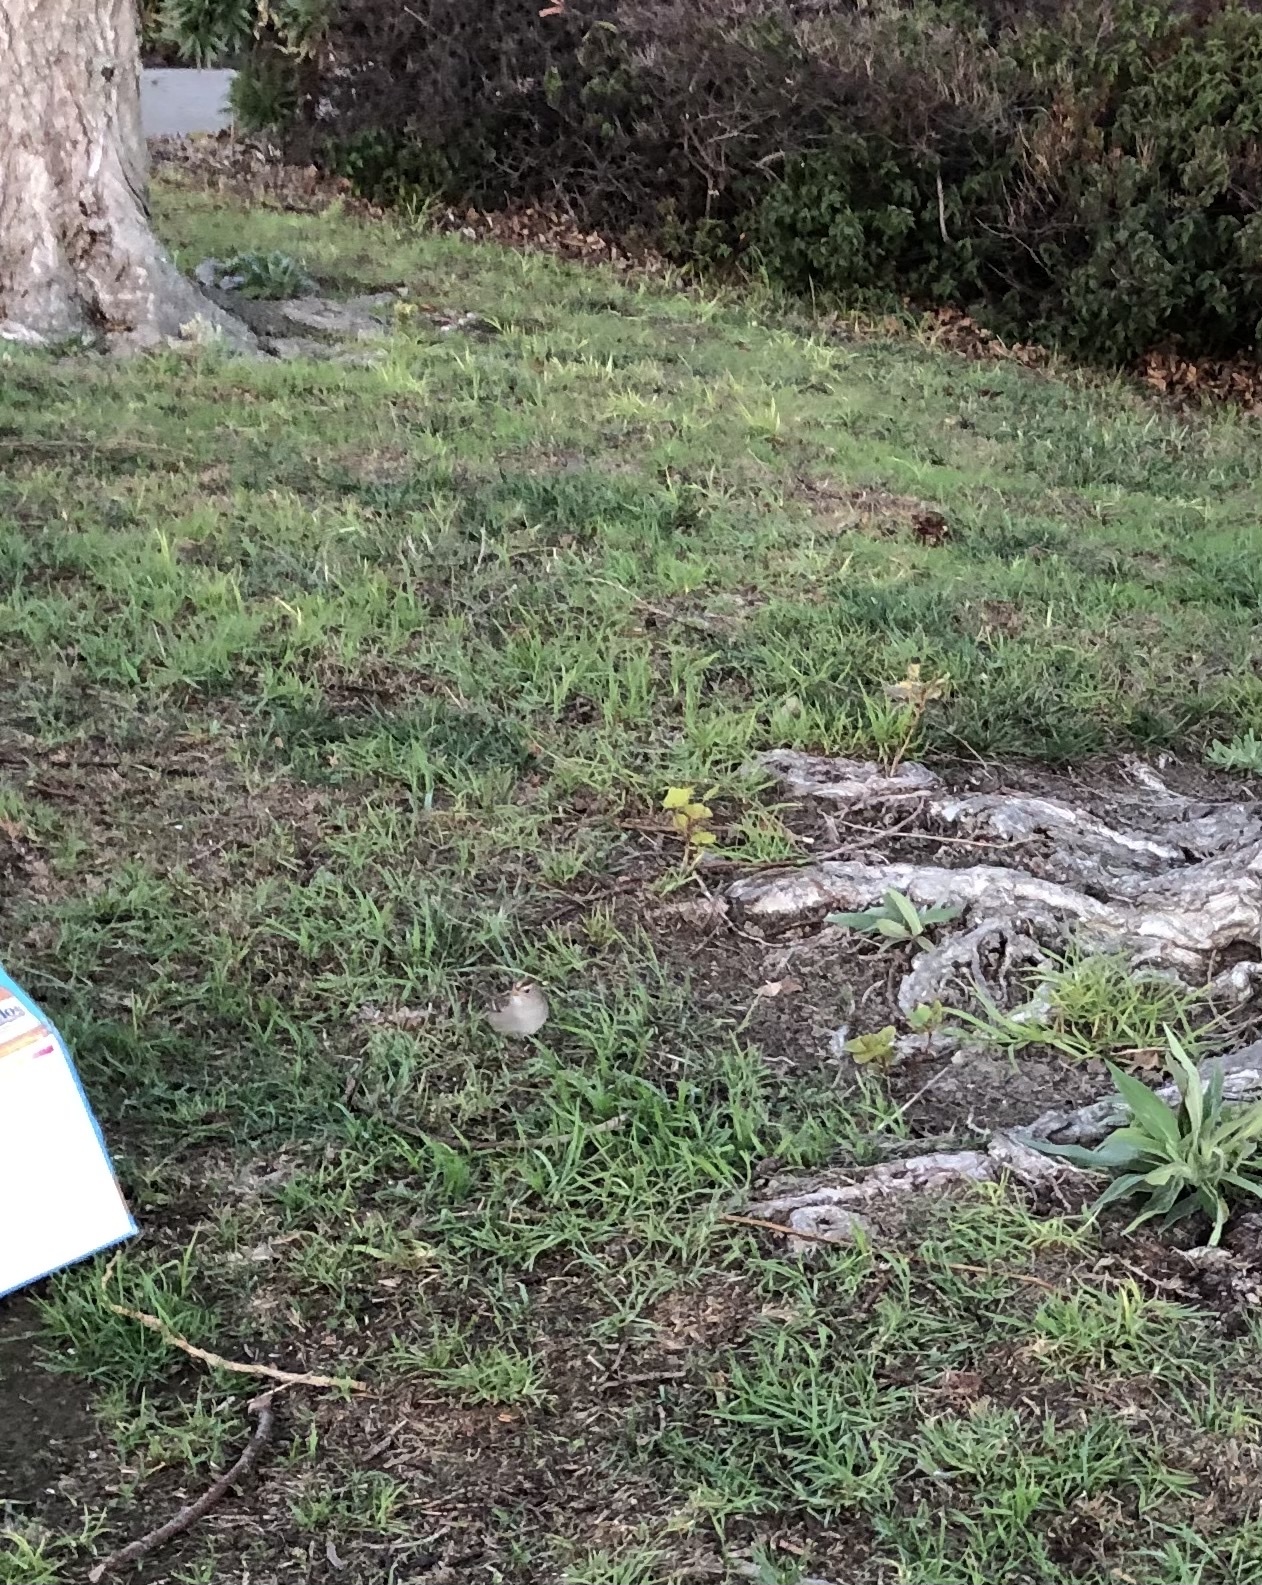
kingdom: Animalia
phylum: Chordata
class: Aves
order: Passeriformes
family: Passerellidae
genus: Zonotrichia
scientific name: Zonotrichia leucophrys
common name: White-crowned sparrow
